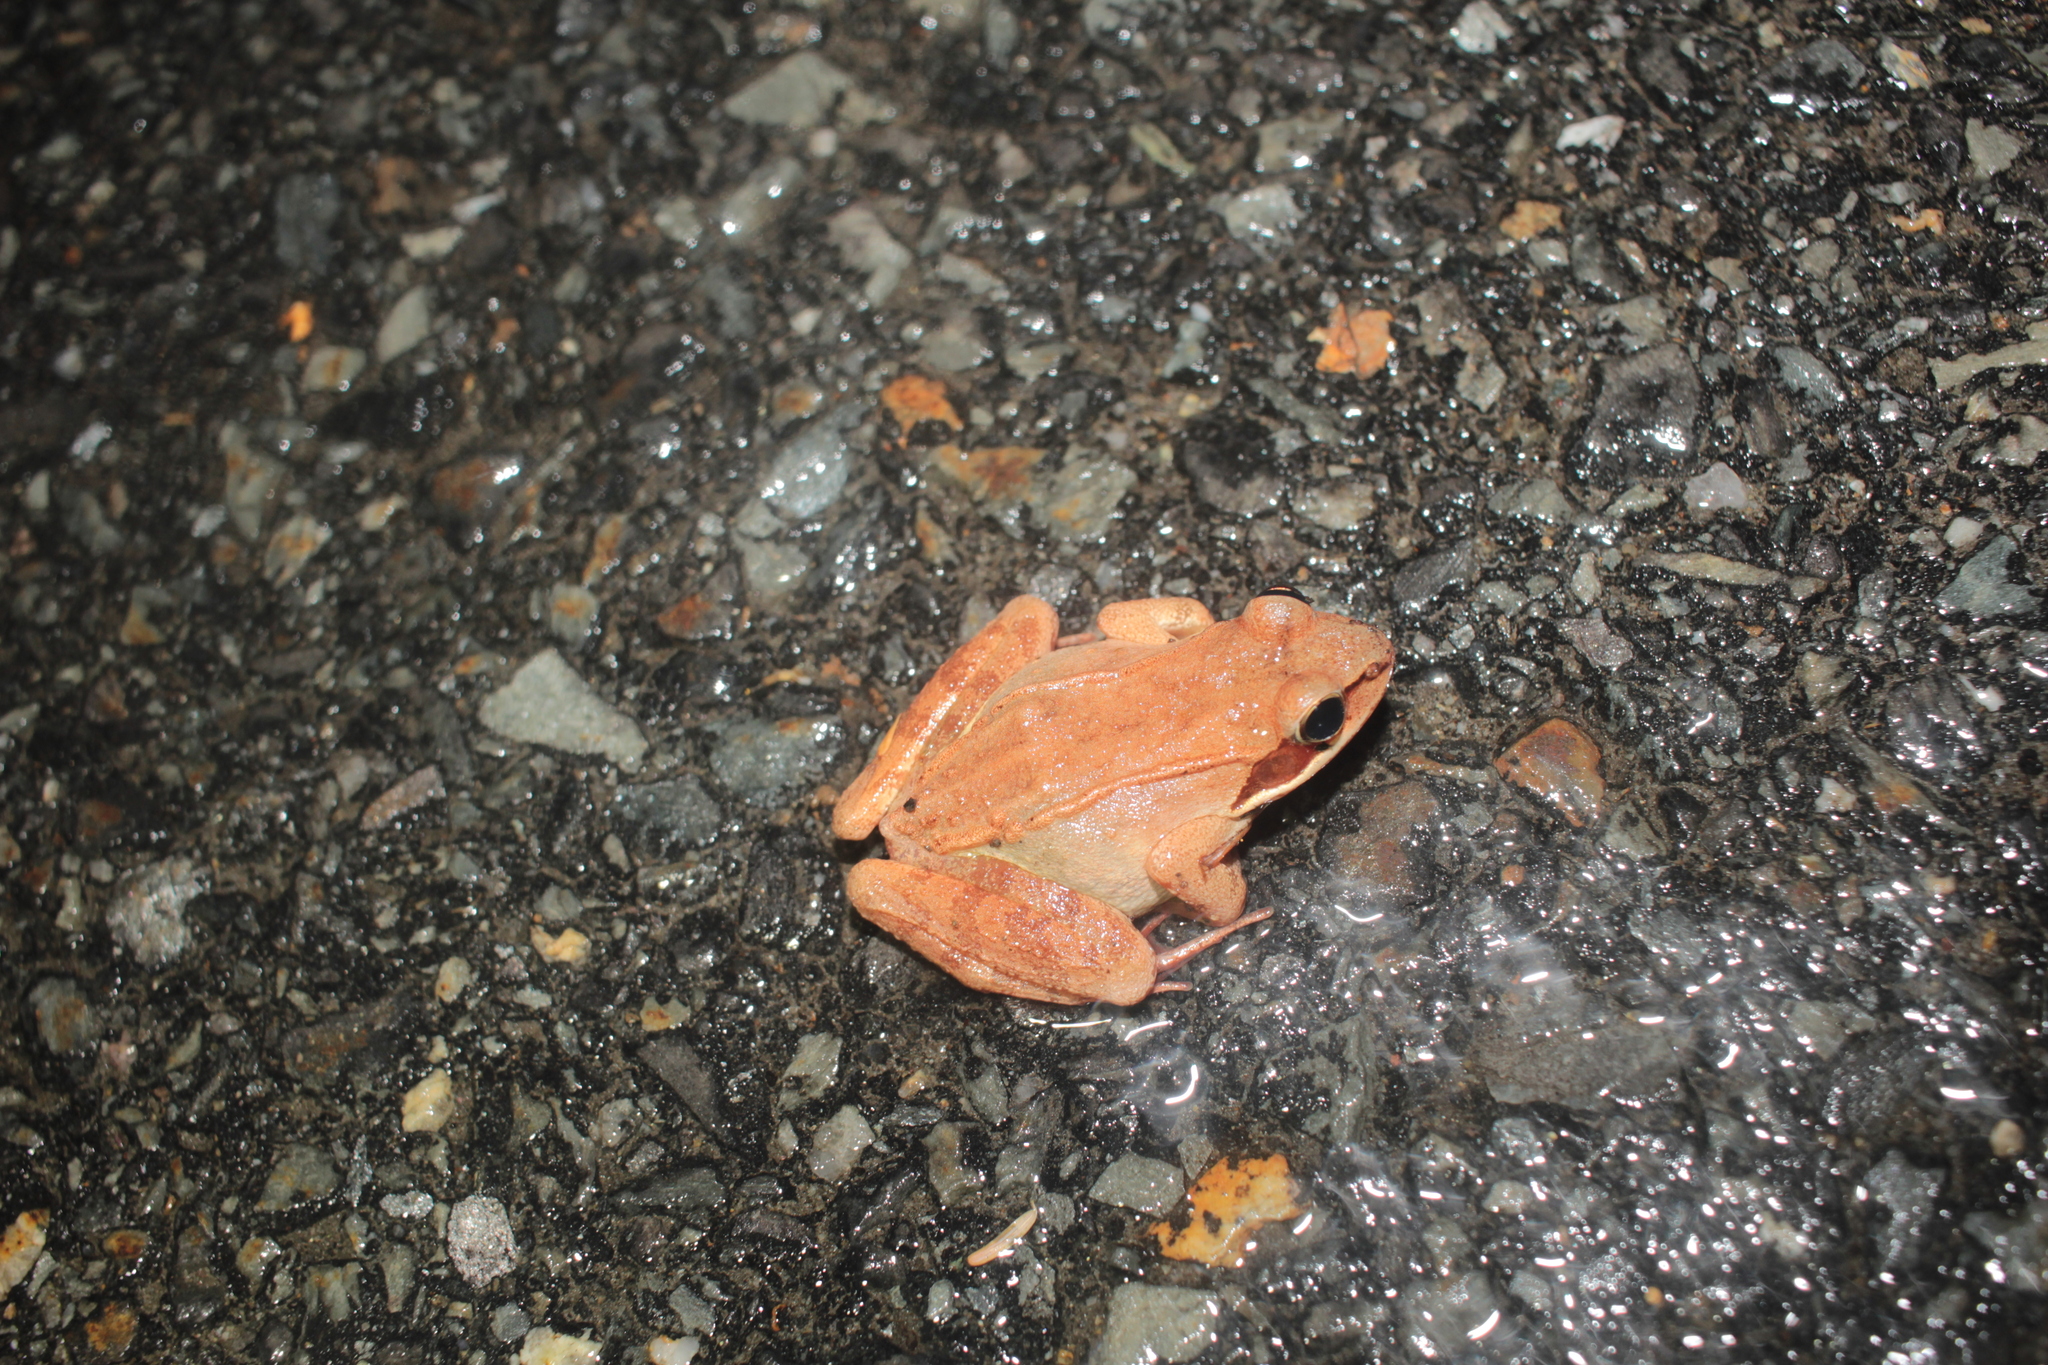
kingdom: Animalia
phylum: Chordata
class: Amphibia
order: Anura
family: Ranidae
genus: Lithobates
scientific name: Lithobates sylvaticus
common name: Wood frog
